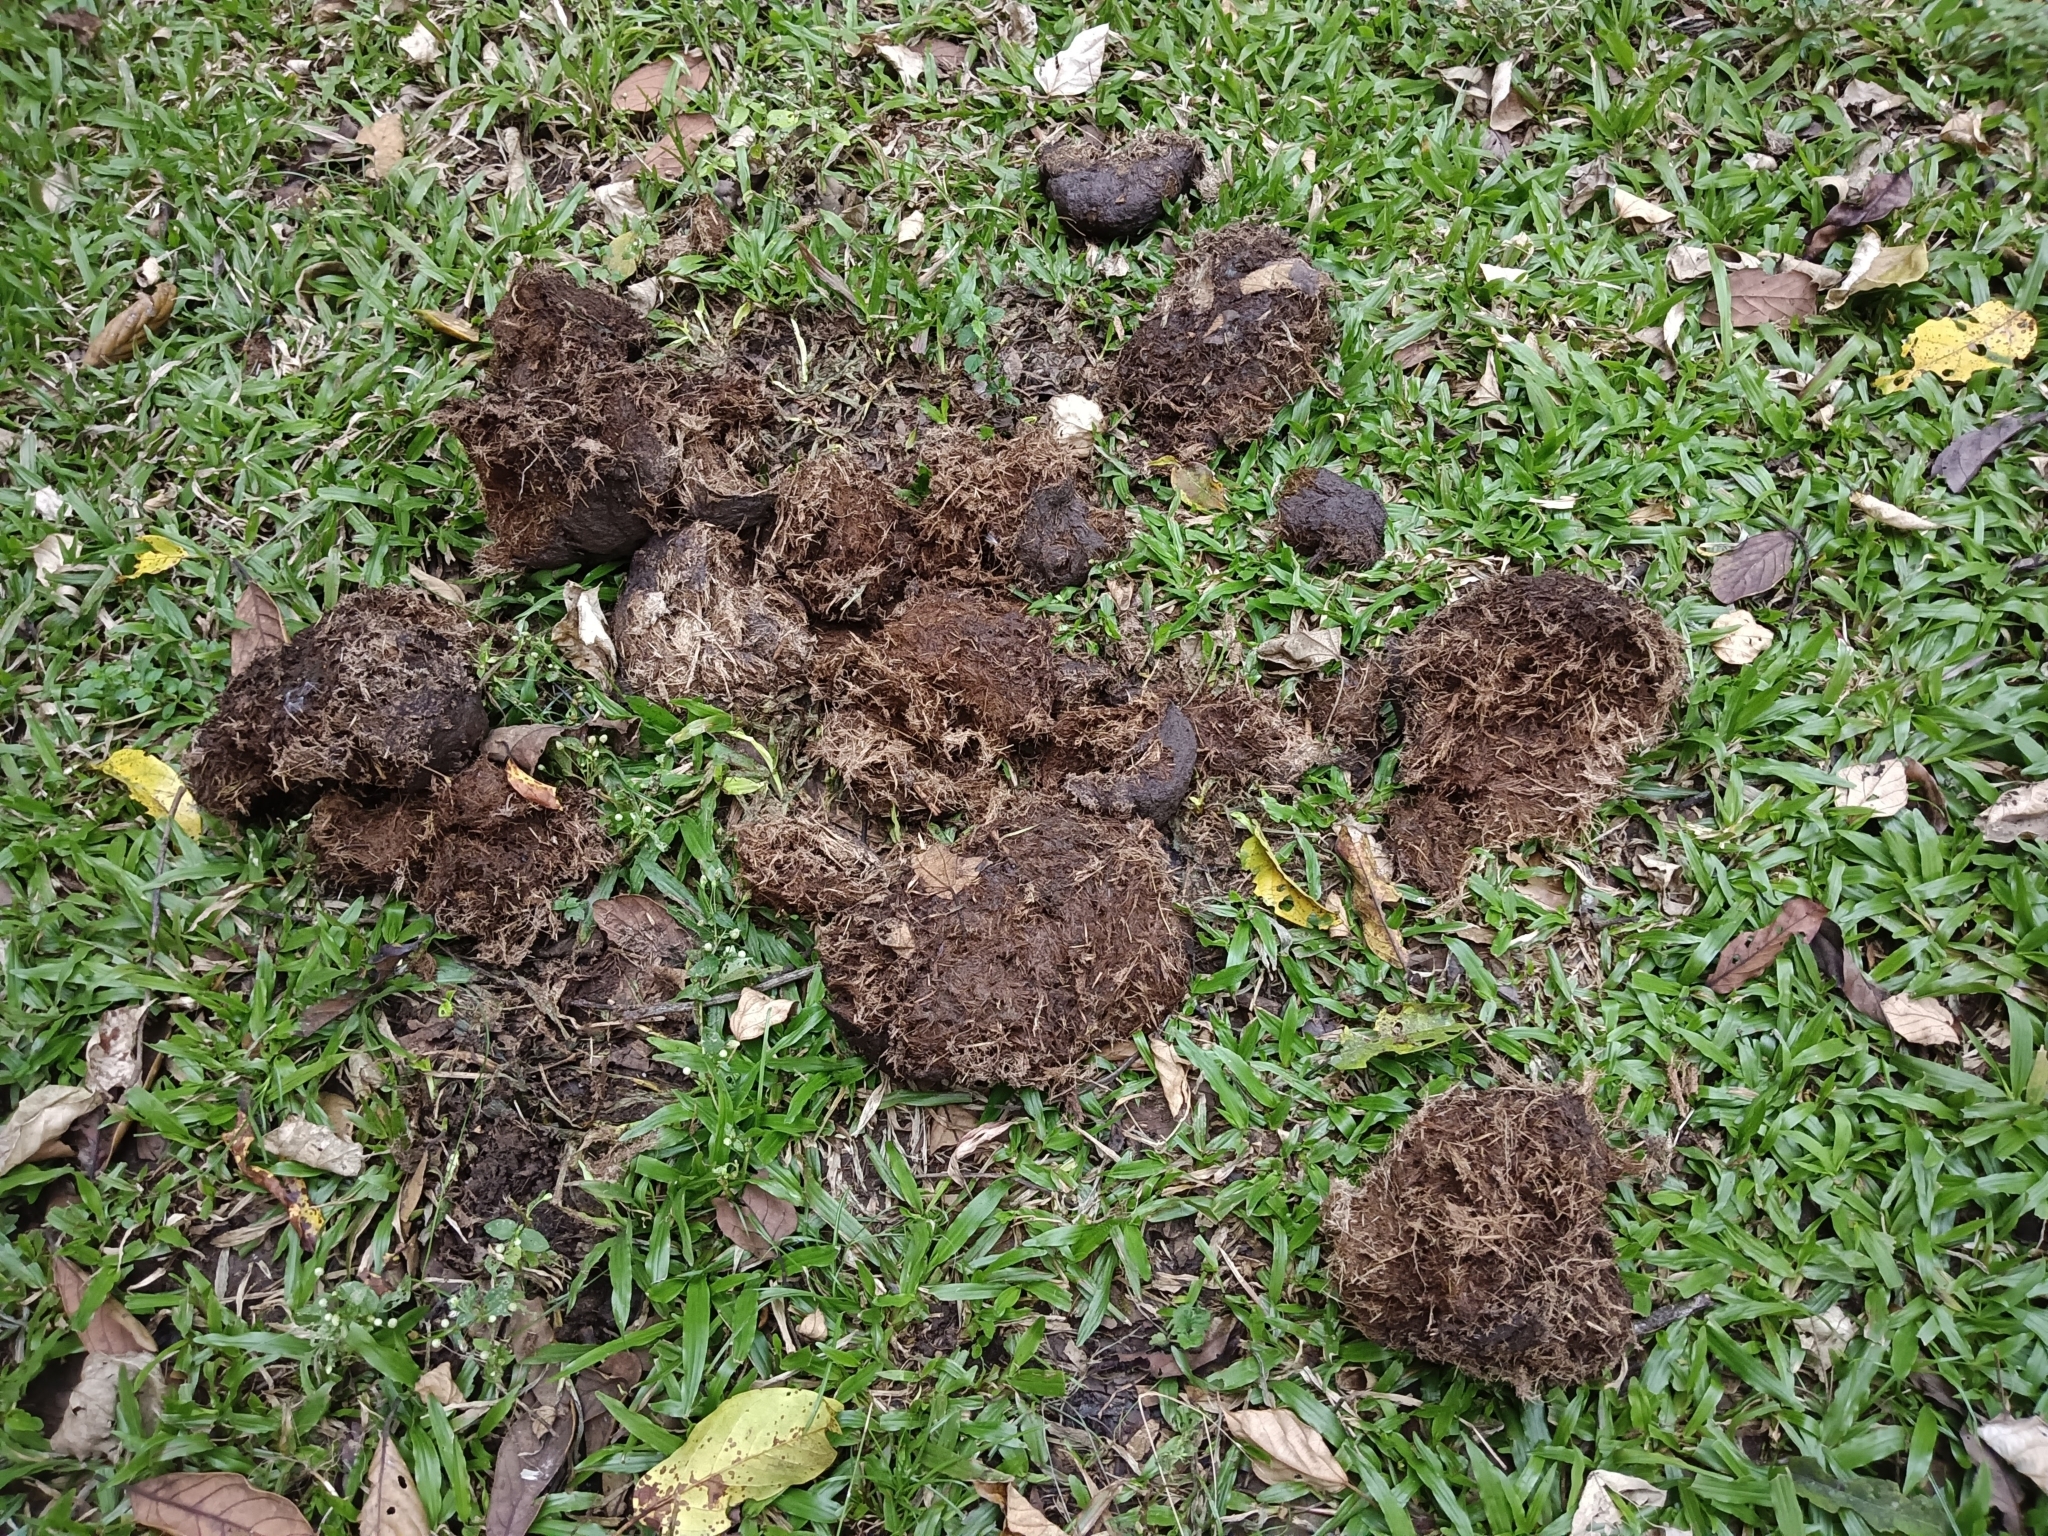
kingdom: Animalia
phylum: Chordata
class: Mammalia
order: Proboscidea
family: Elephantidae
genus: Elephas
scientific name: Elephas maximus
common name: Asian elephant
